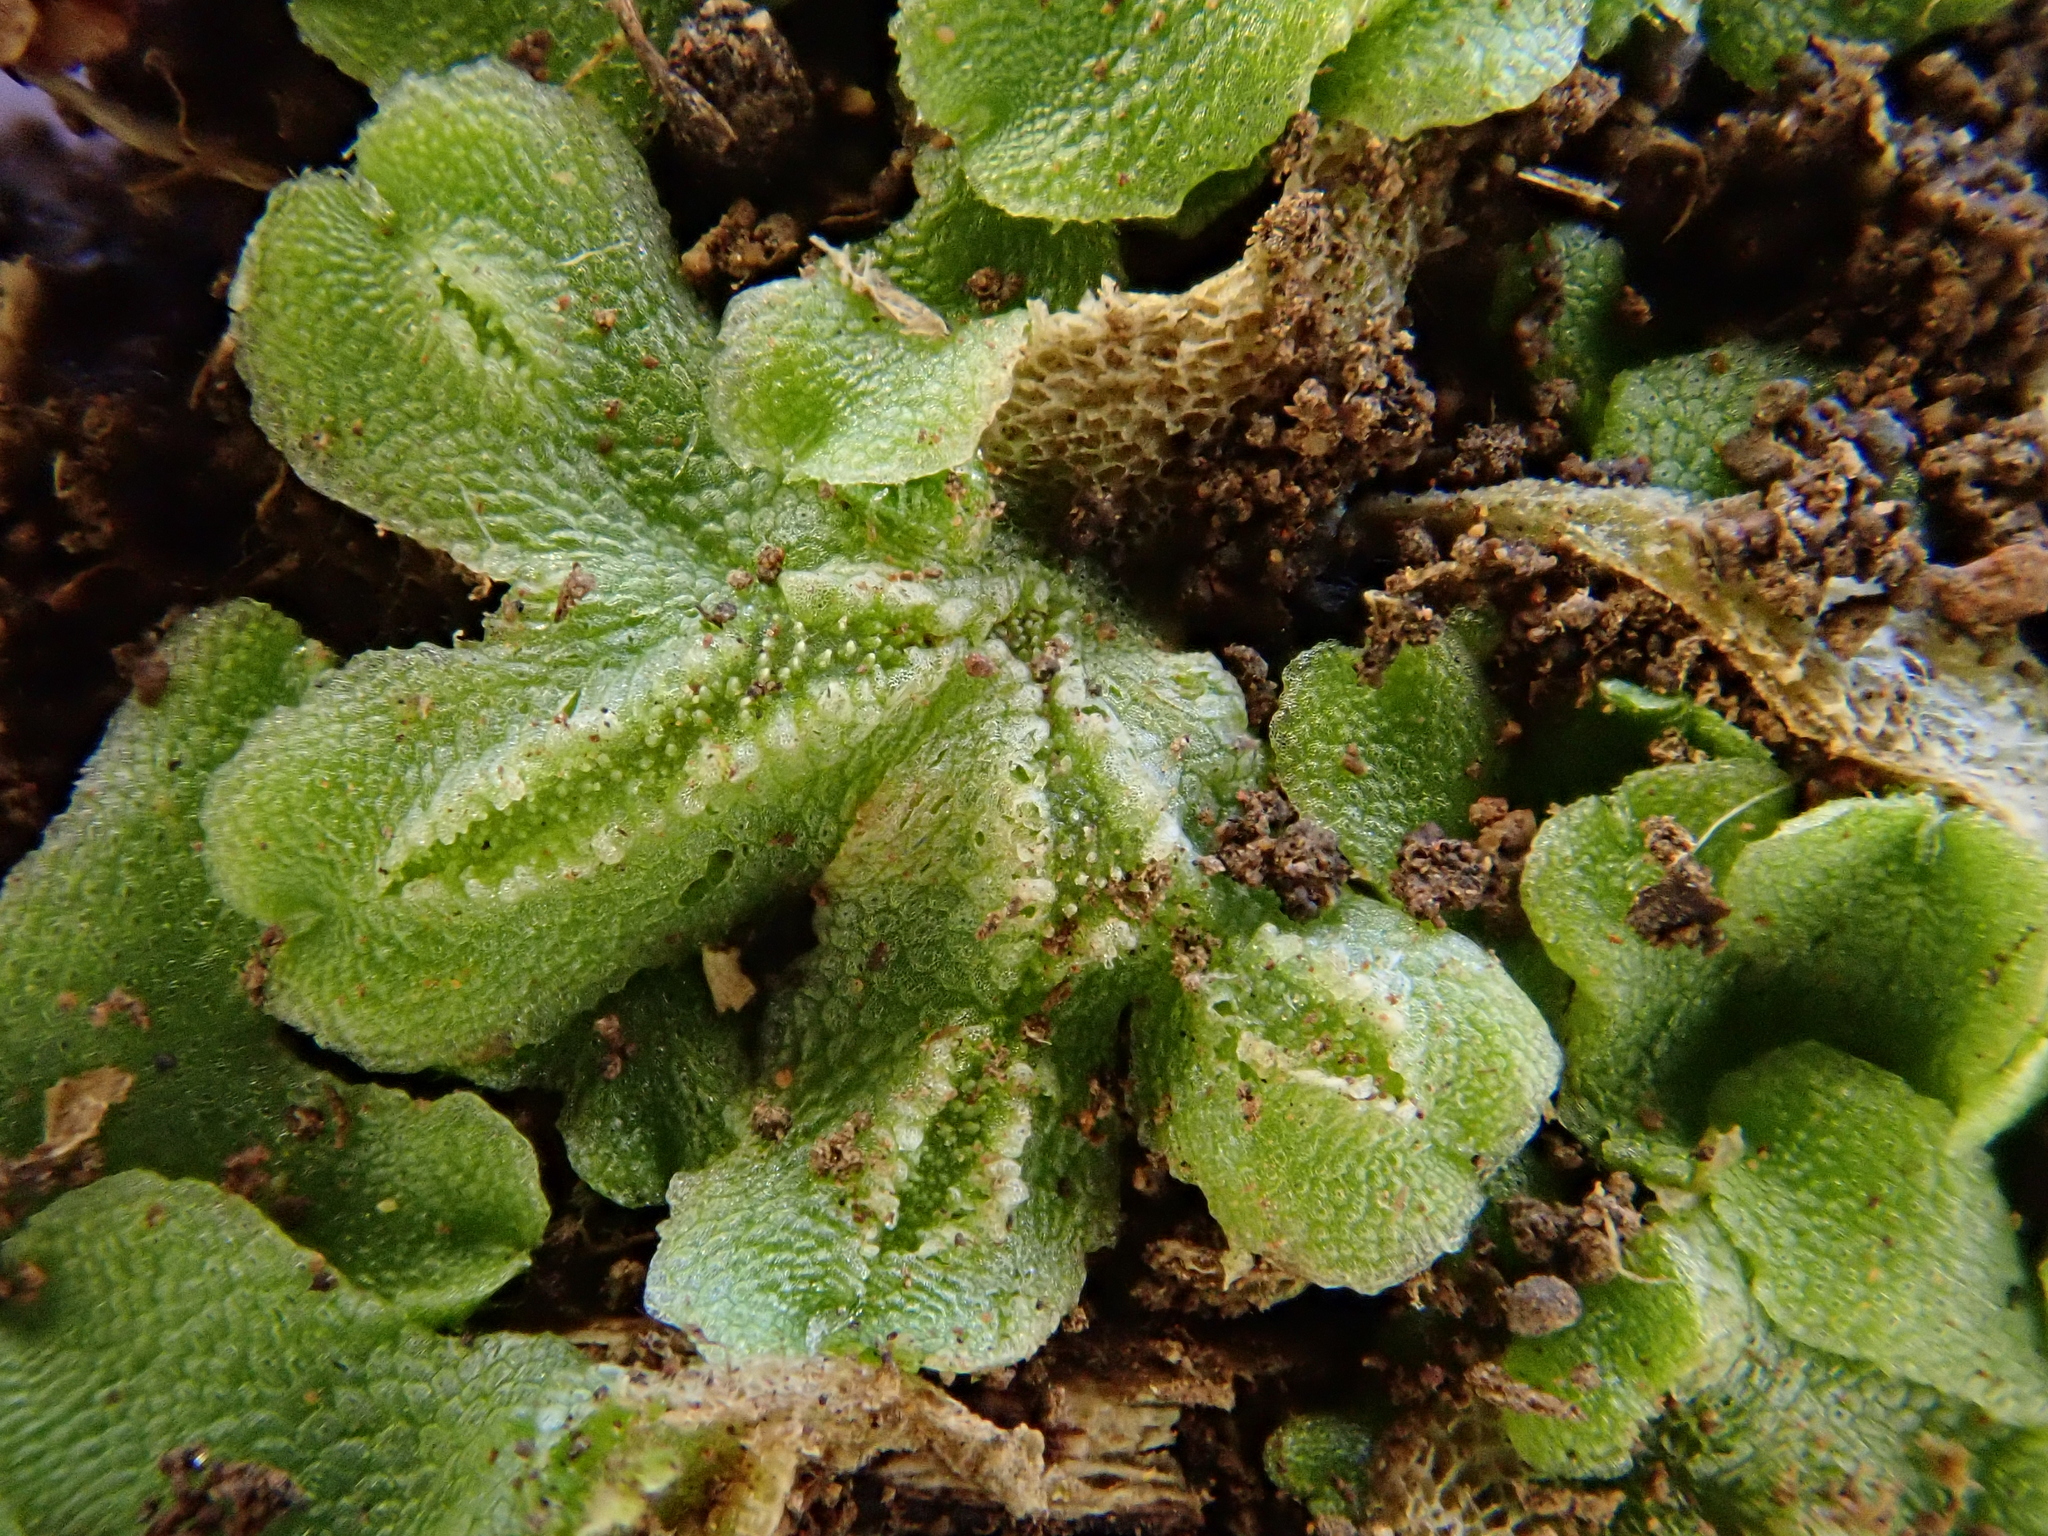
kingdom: Plantae
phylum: Marchantiophyta
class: Marchantiopsida
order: Marchantiales
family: Corsiniaceae
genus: Corsinia
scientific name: Corsinia coriandrina
